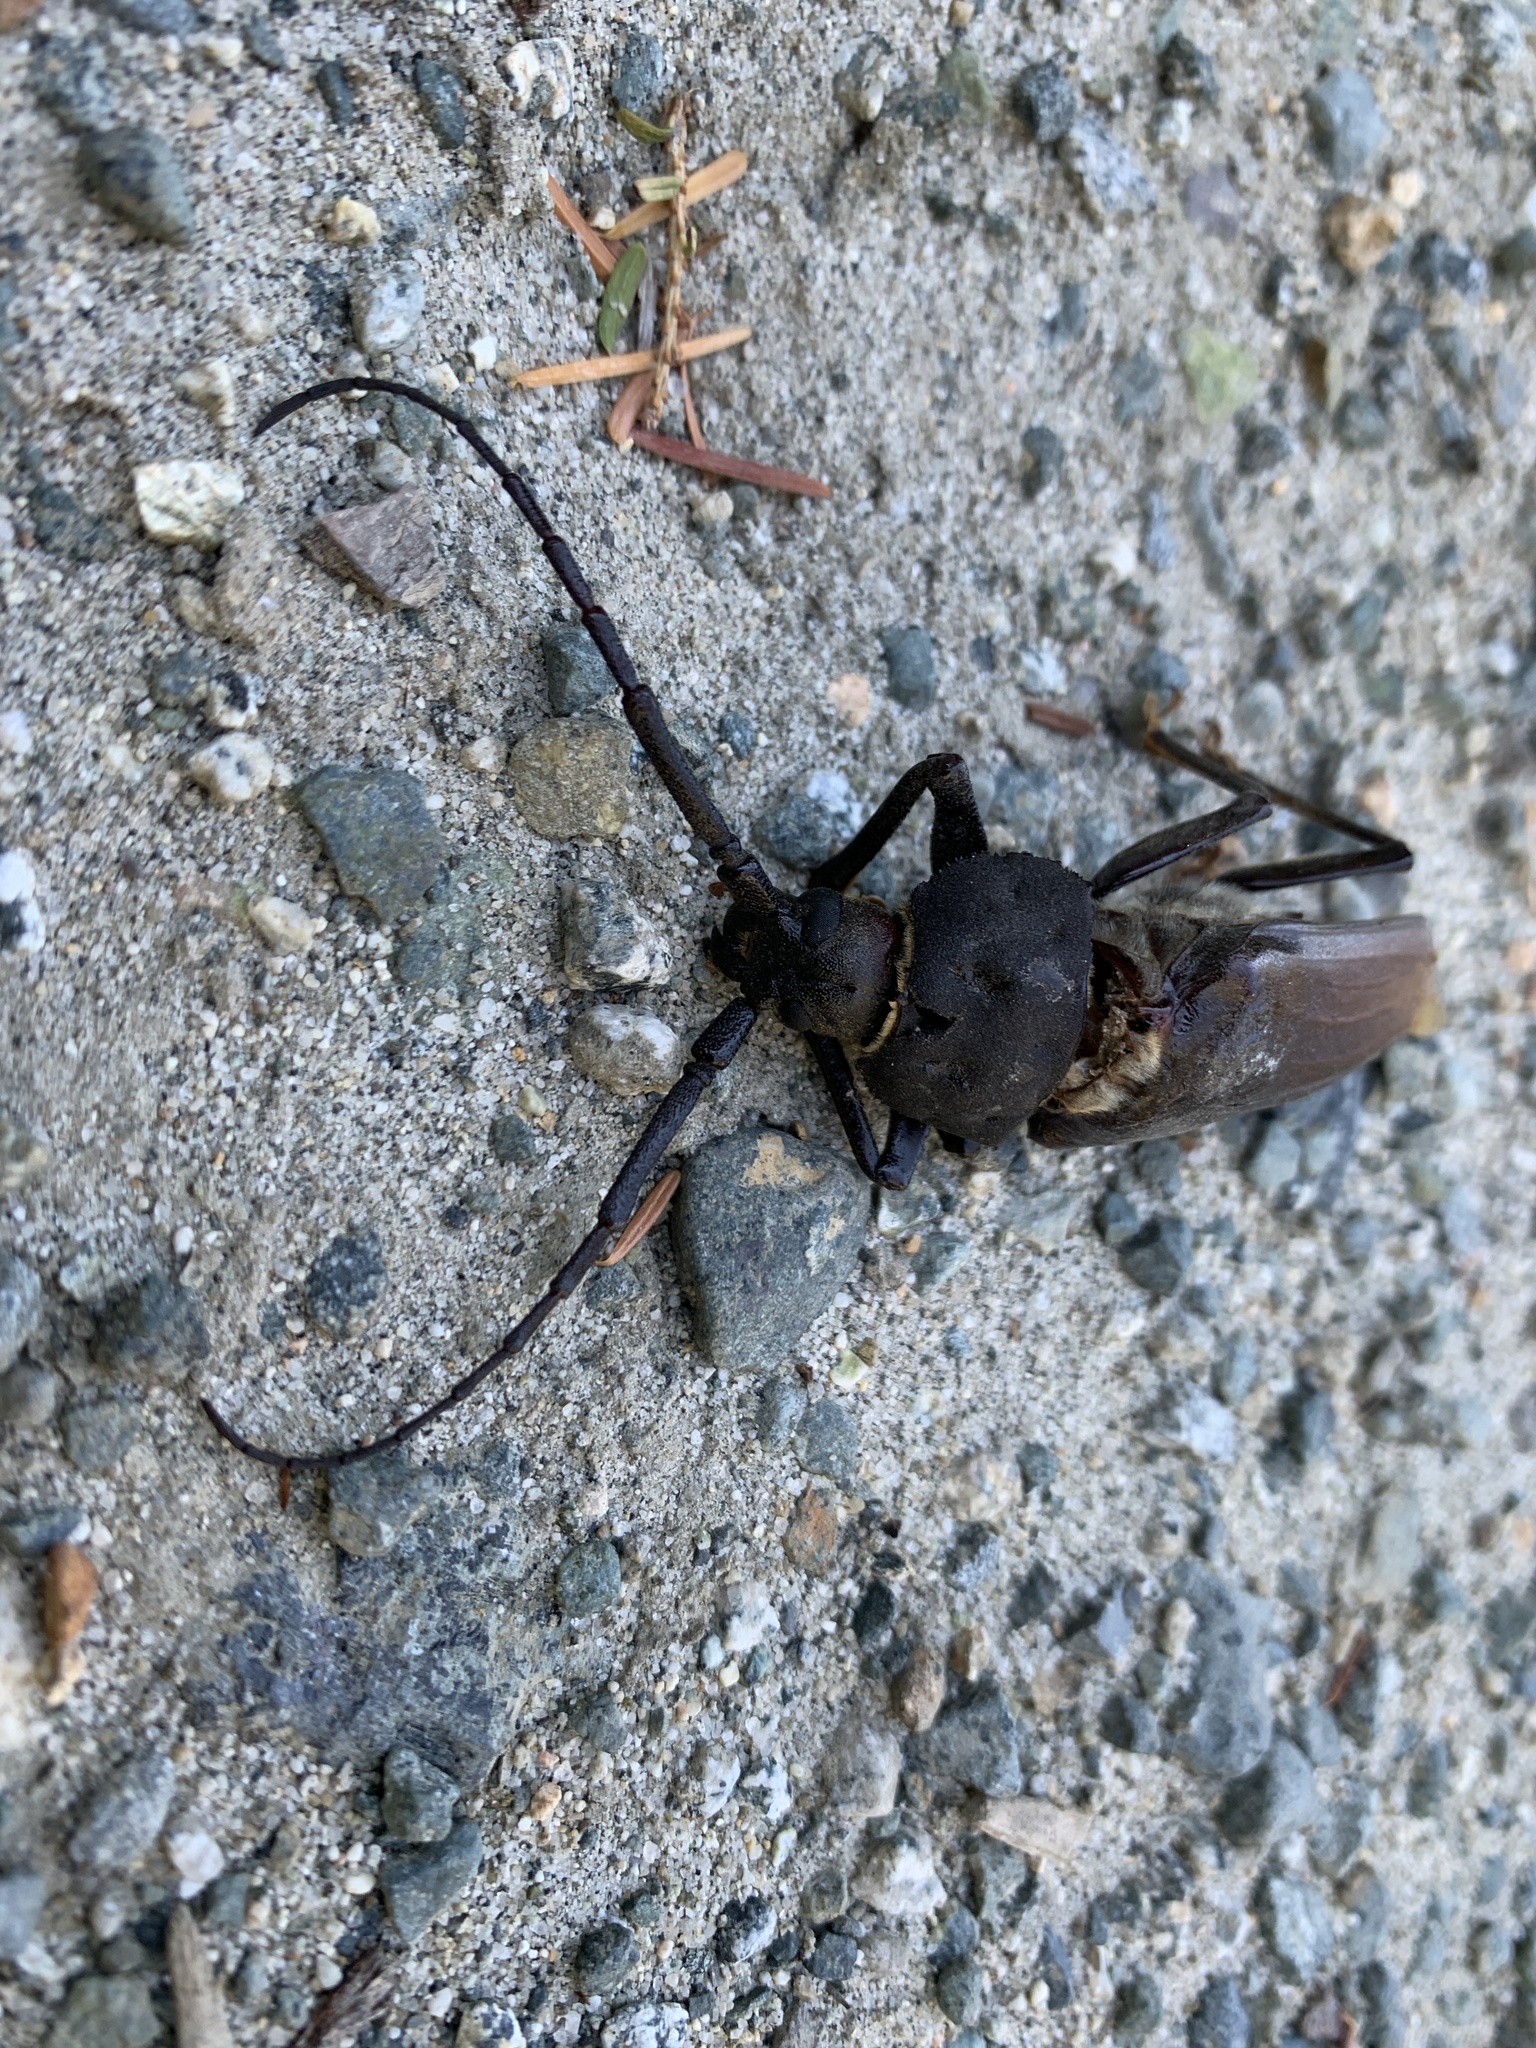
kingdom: Animalia
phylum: Arthropoda
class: Insecta
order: Coleoptera
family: Cerambycidae
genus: Trichocnemis
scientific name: Trichocnemis spiculatus
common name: Long-horned beetle
